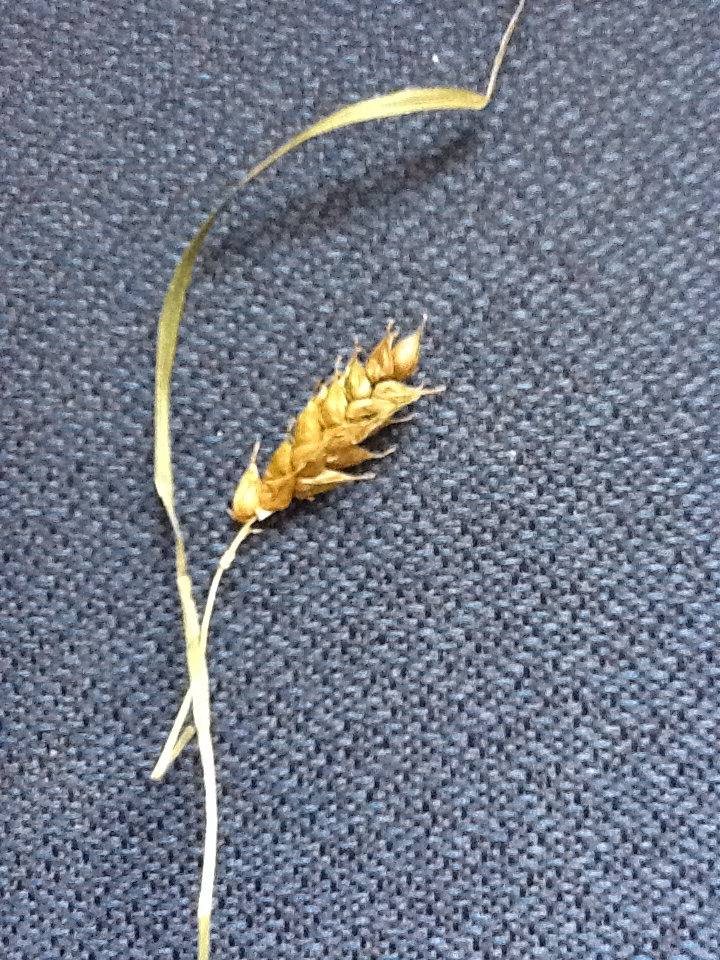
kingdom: Plantae
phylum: Tracheophyta
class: Liliopsida
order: Poales
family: Cyperaceae
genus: Carex
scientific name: Carex tuckermanii
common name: Tuckerman's sedge
